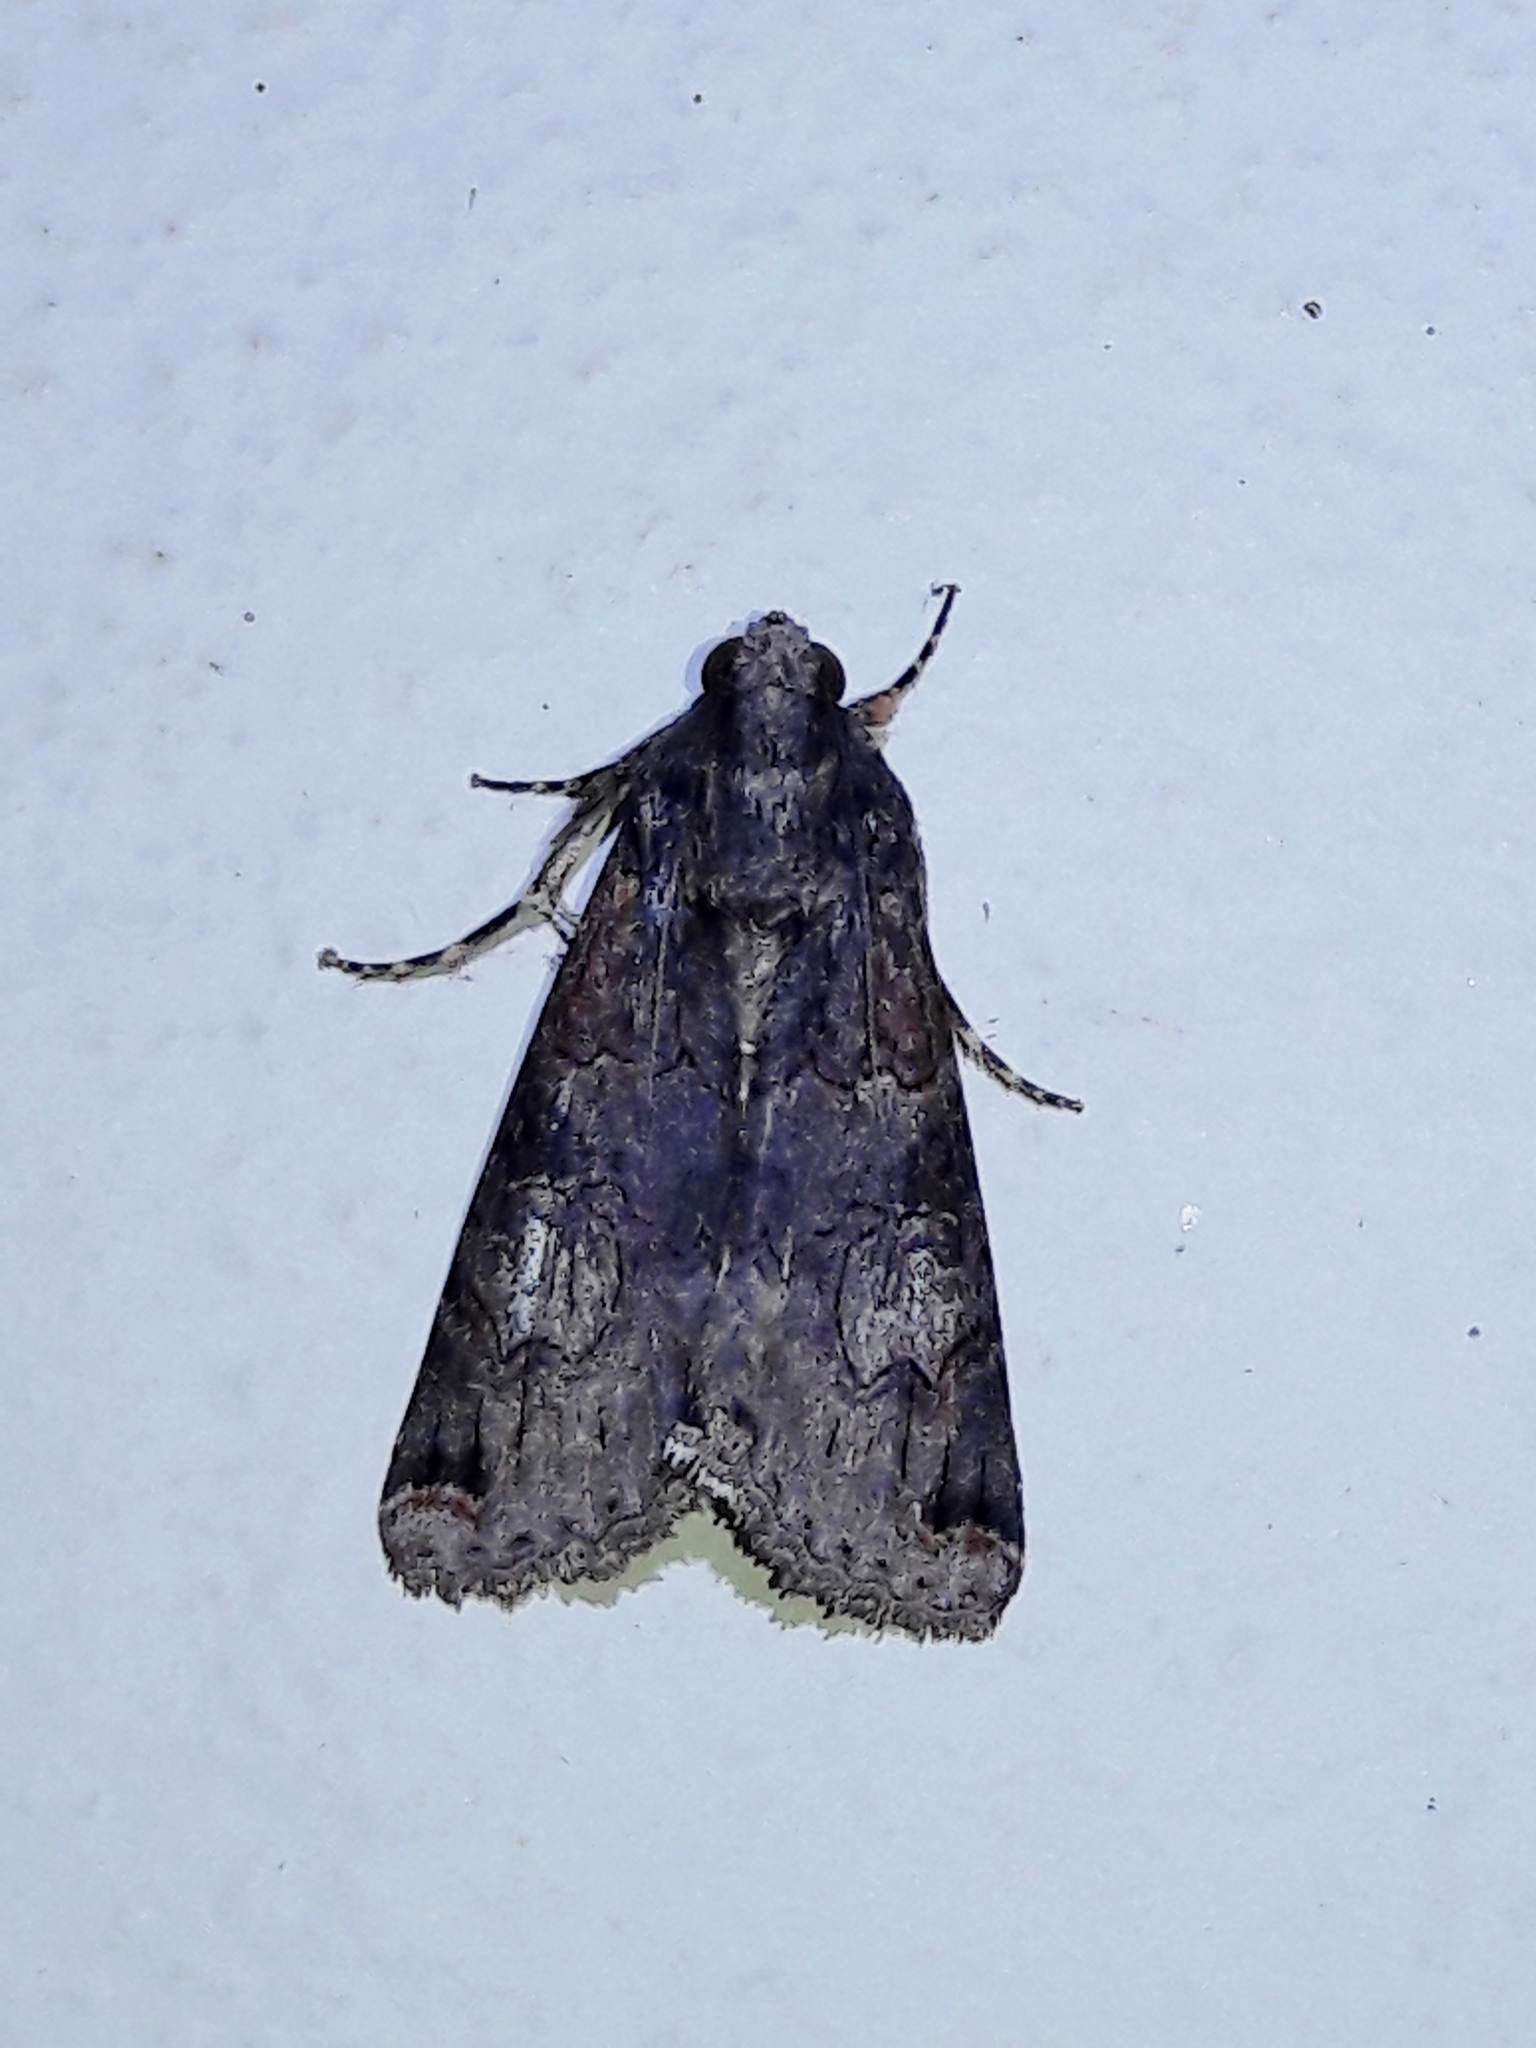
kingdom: Animalia
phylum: Arthropoda
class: Insecta
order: Lepidoptera
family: Erebidae
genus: Melipotis
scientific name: Melipotis famelica
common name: Famelica melipotis moth
